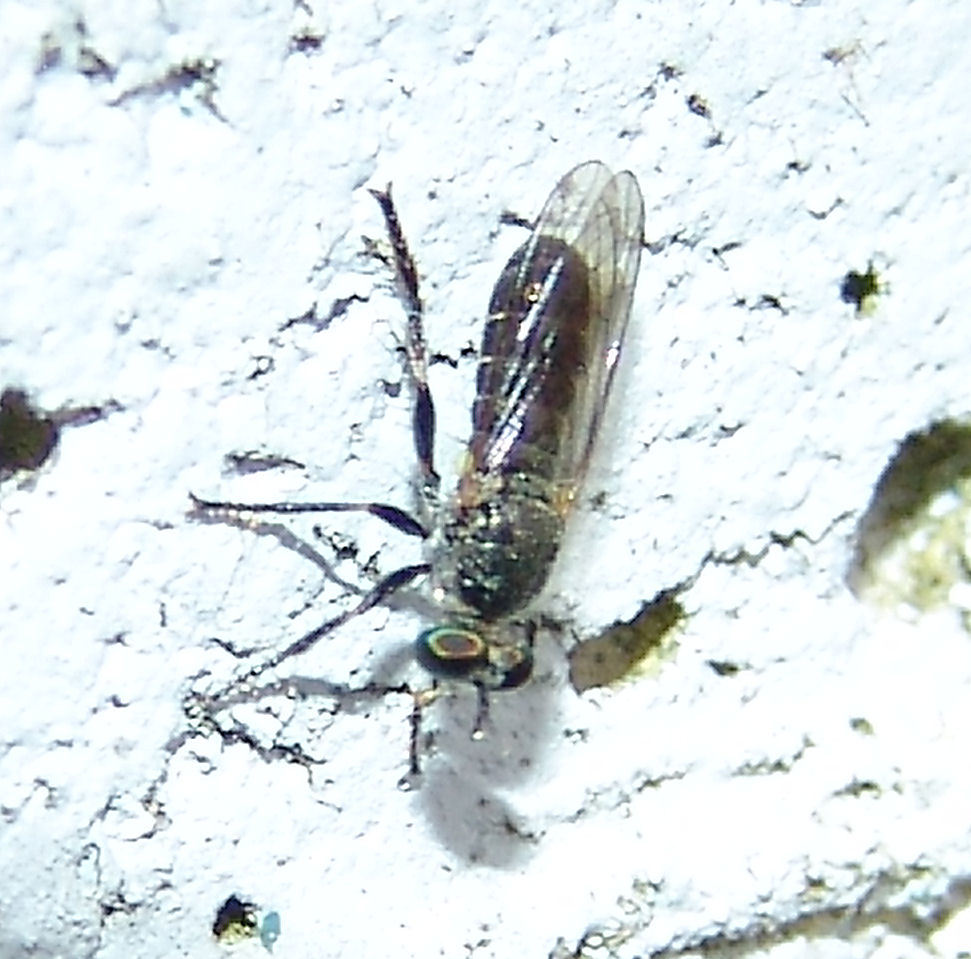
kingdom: Animalia
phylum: Arthropoda
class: Insecta
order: Diptera
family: Asilidae
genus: Atomosia
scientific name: Atomosia
